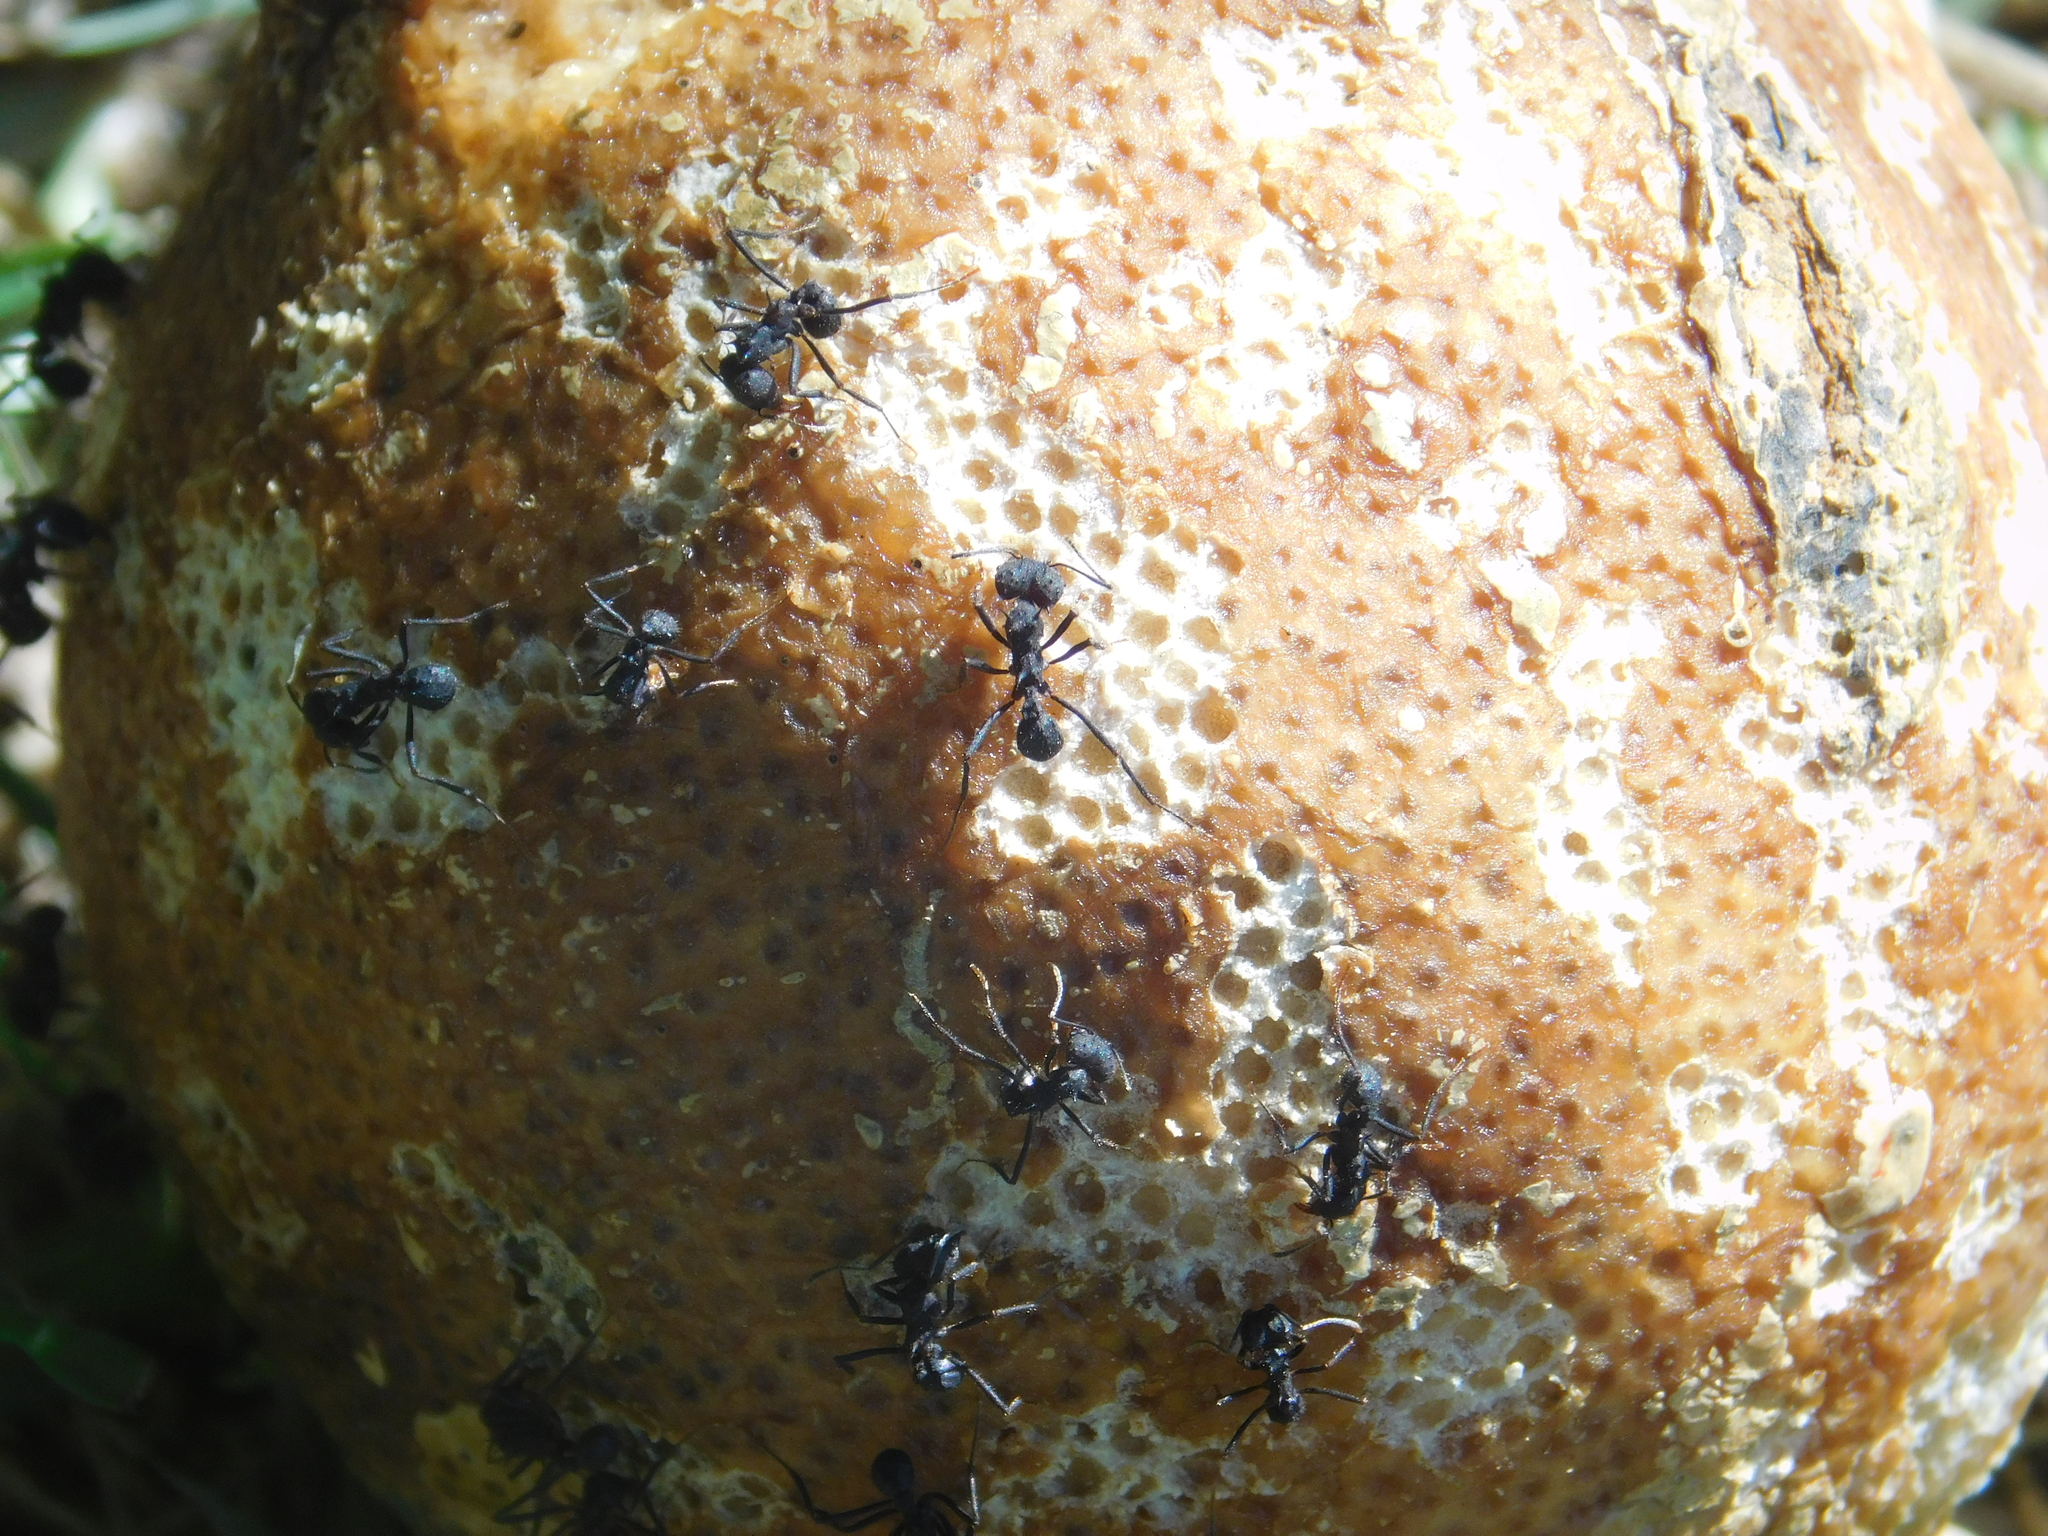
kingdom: Animalia
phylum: Arthropoda
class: Insecta
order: Hymenoptera
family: Formicidae
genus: Acromyrmex
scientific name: Acromyrmex lundii
